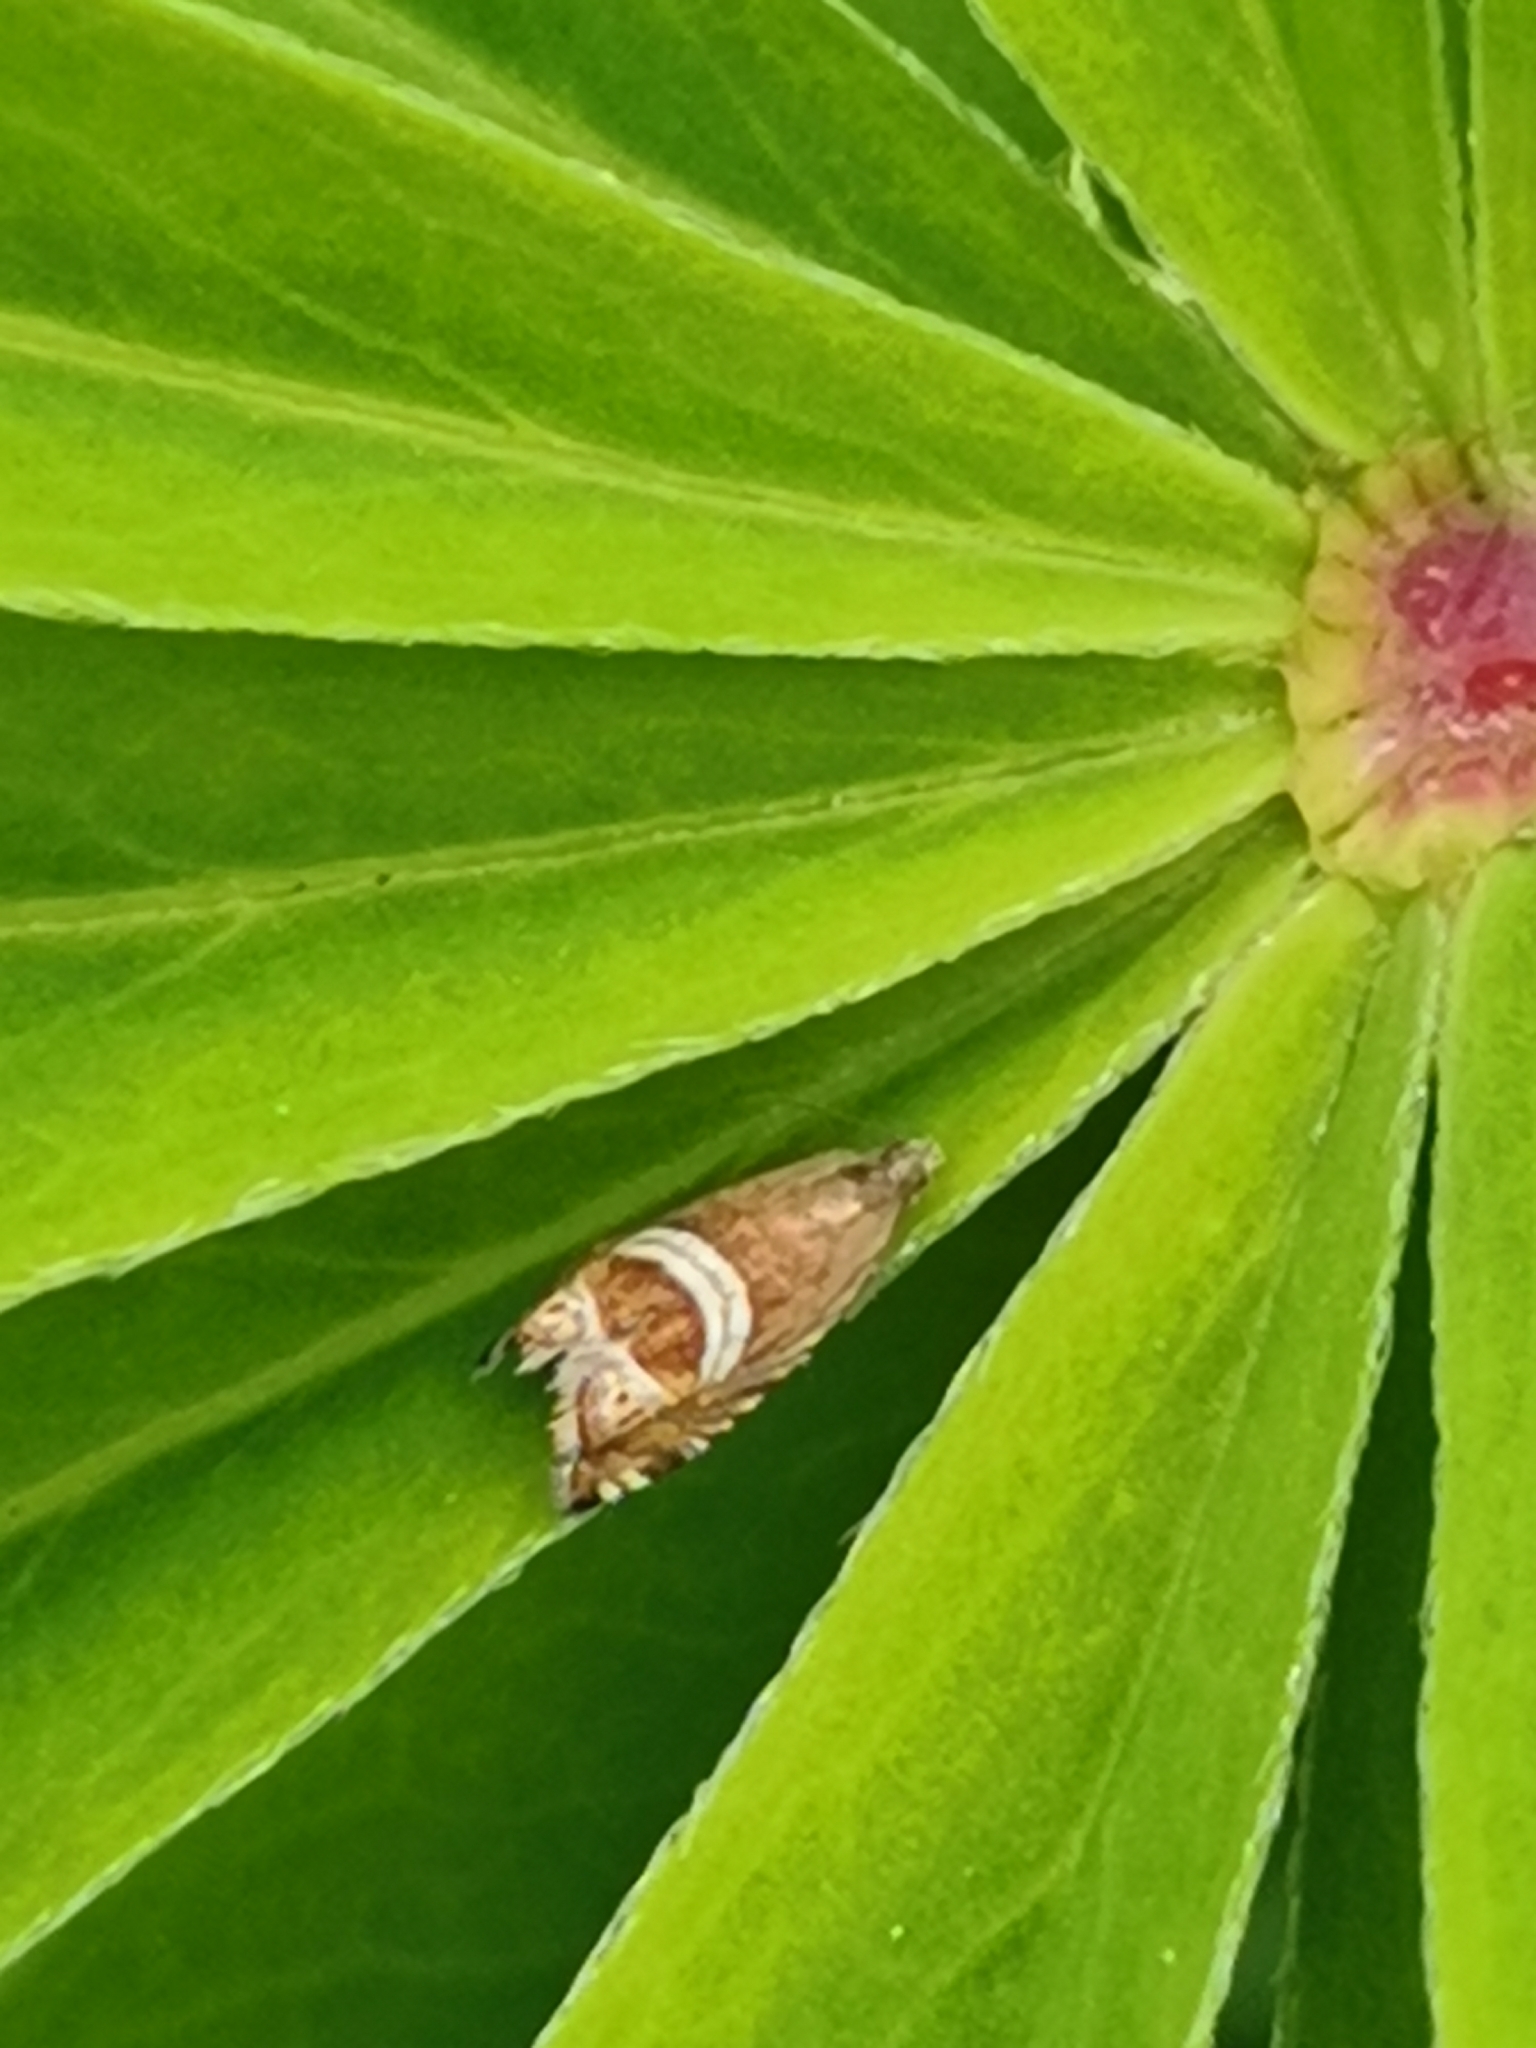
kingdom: Animalia
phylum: Arthropoda
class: Insecta
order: Lepidoptera
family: Tortricidae
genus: Grapholita
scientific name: Grapholita
